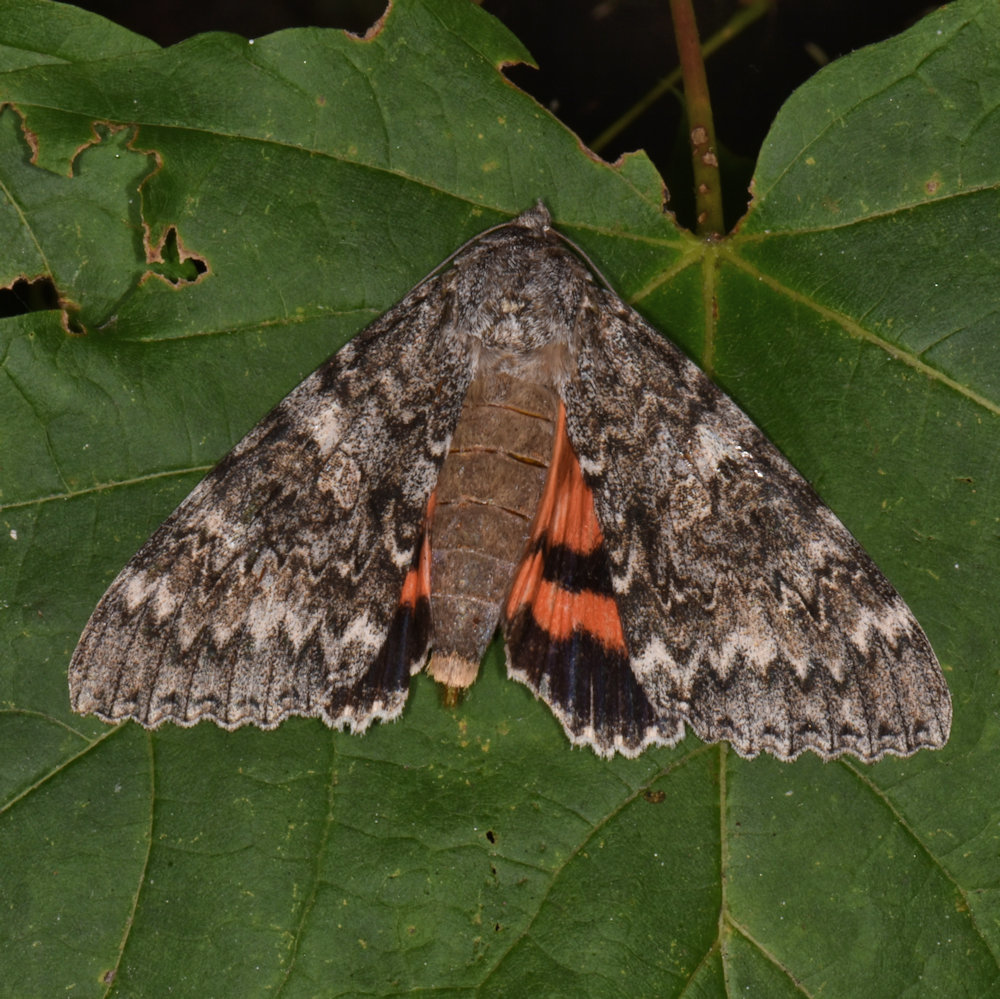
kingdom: Animalia
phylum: Arthropoda
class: Insecta
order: Lepidoptera
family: Erebidae
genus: Catocala
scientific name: Catocala unijuga
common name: Once-married underwing
